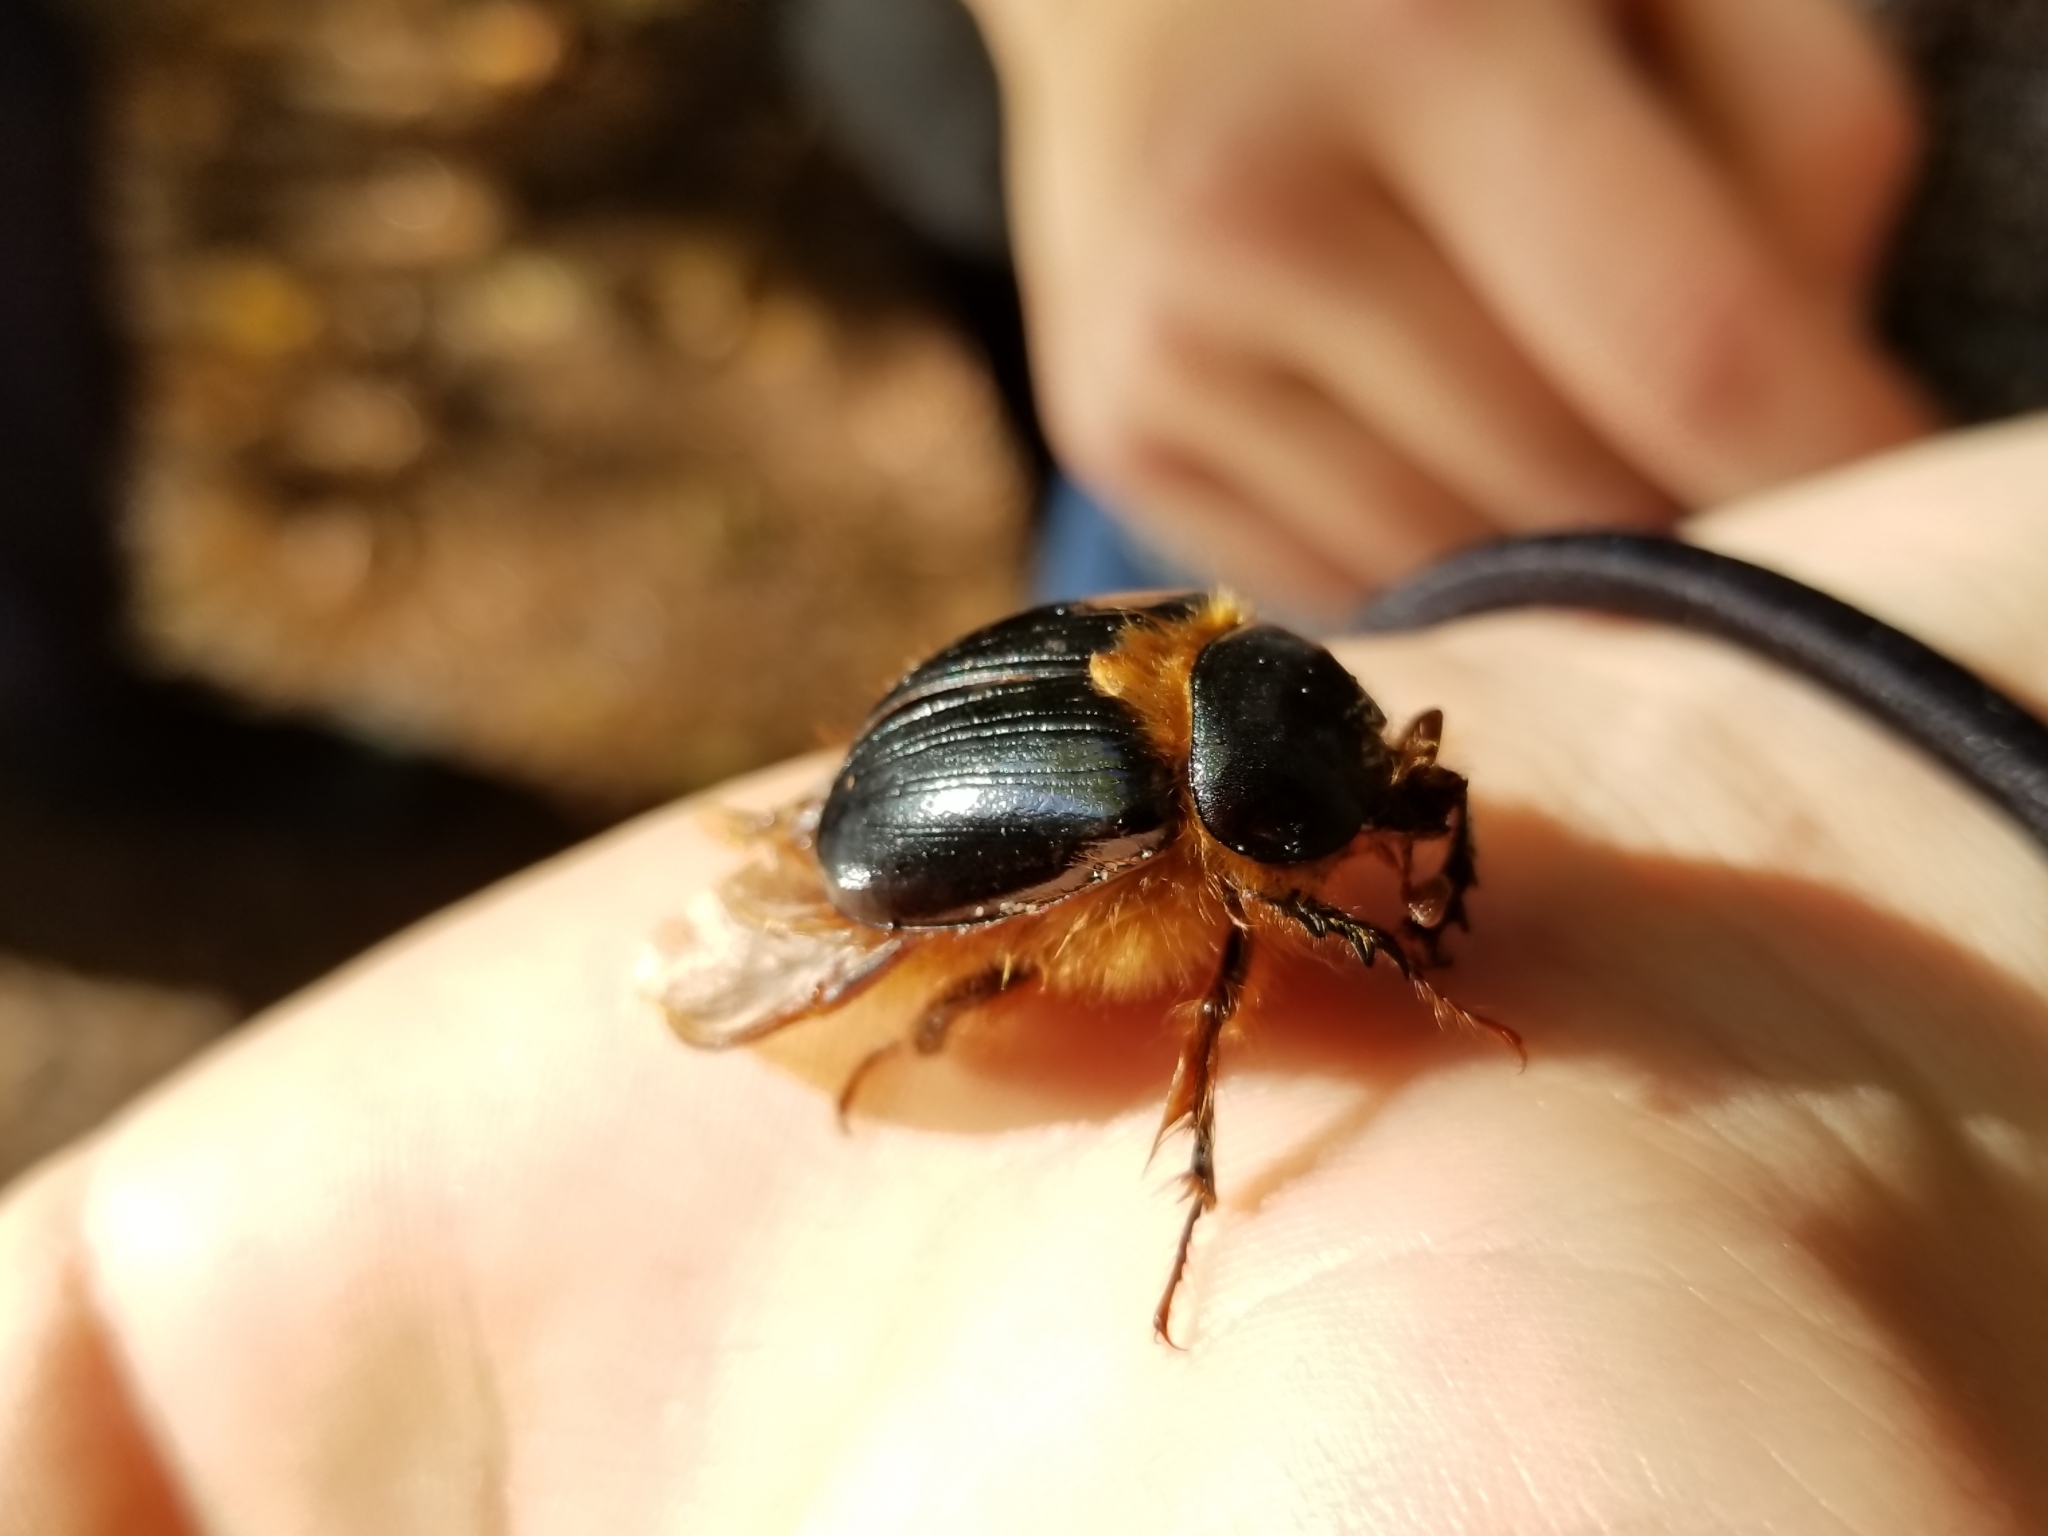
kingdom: Animalia
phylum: Arthropoda
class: Insecta
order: Coleoptera
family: Pleocomidae
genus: Pleocoma
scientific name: Pleocoma dubitabilis
